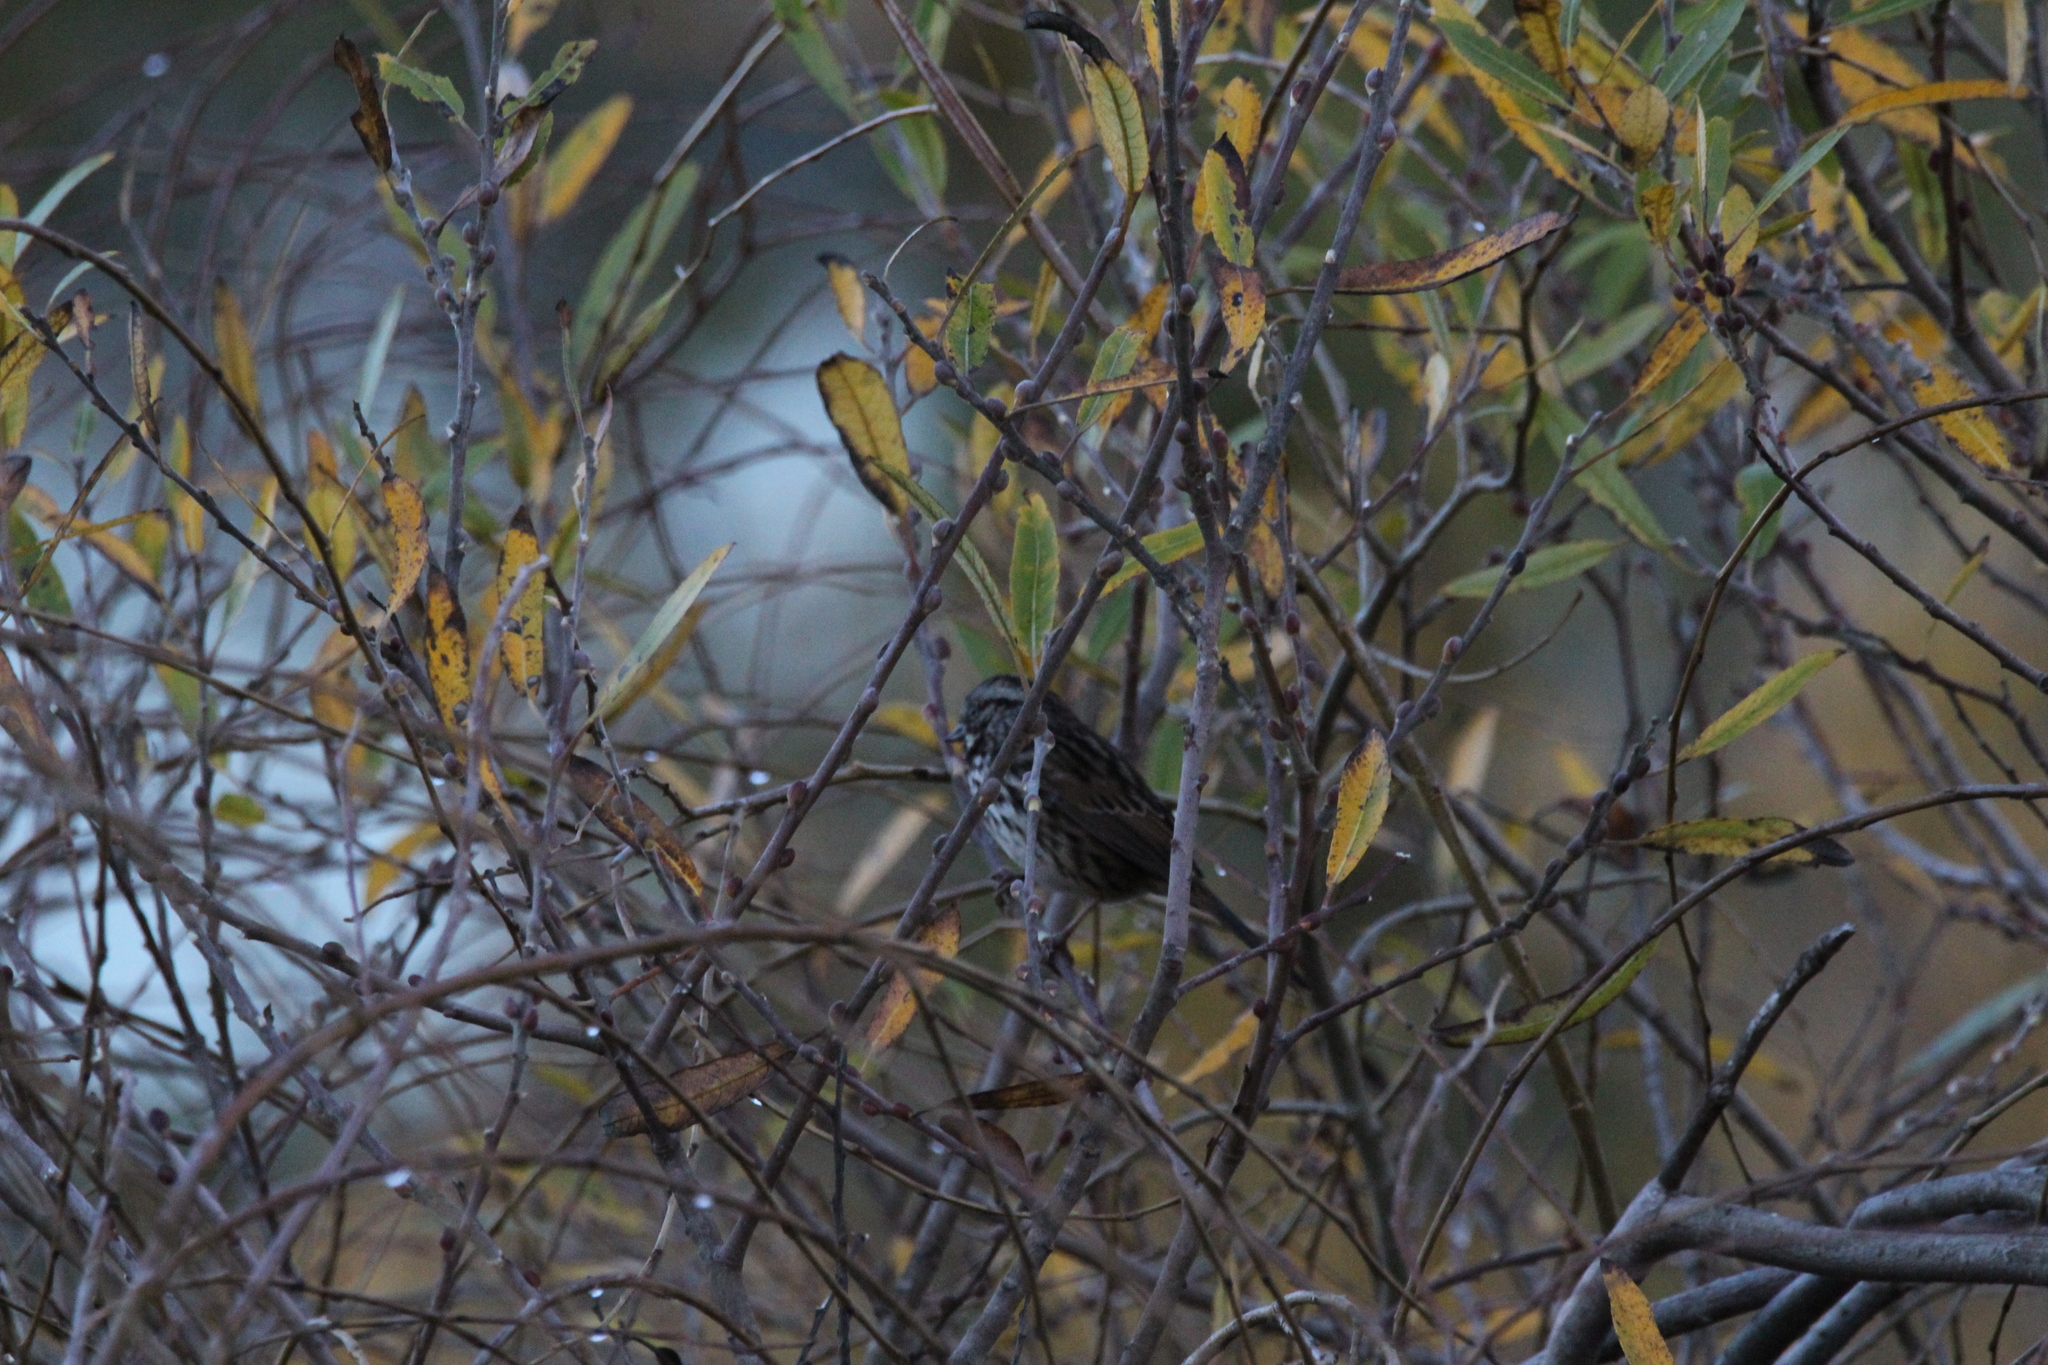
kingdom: Animalia
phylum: Chordata
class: Aves
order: Passeriformes
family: Passerellidae
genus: Melospiza
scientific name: Melospiza melodia
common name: Song sparrow
